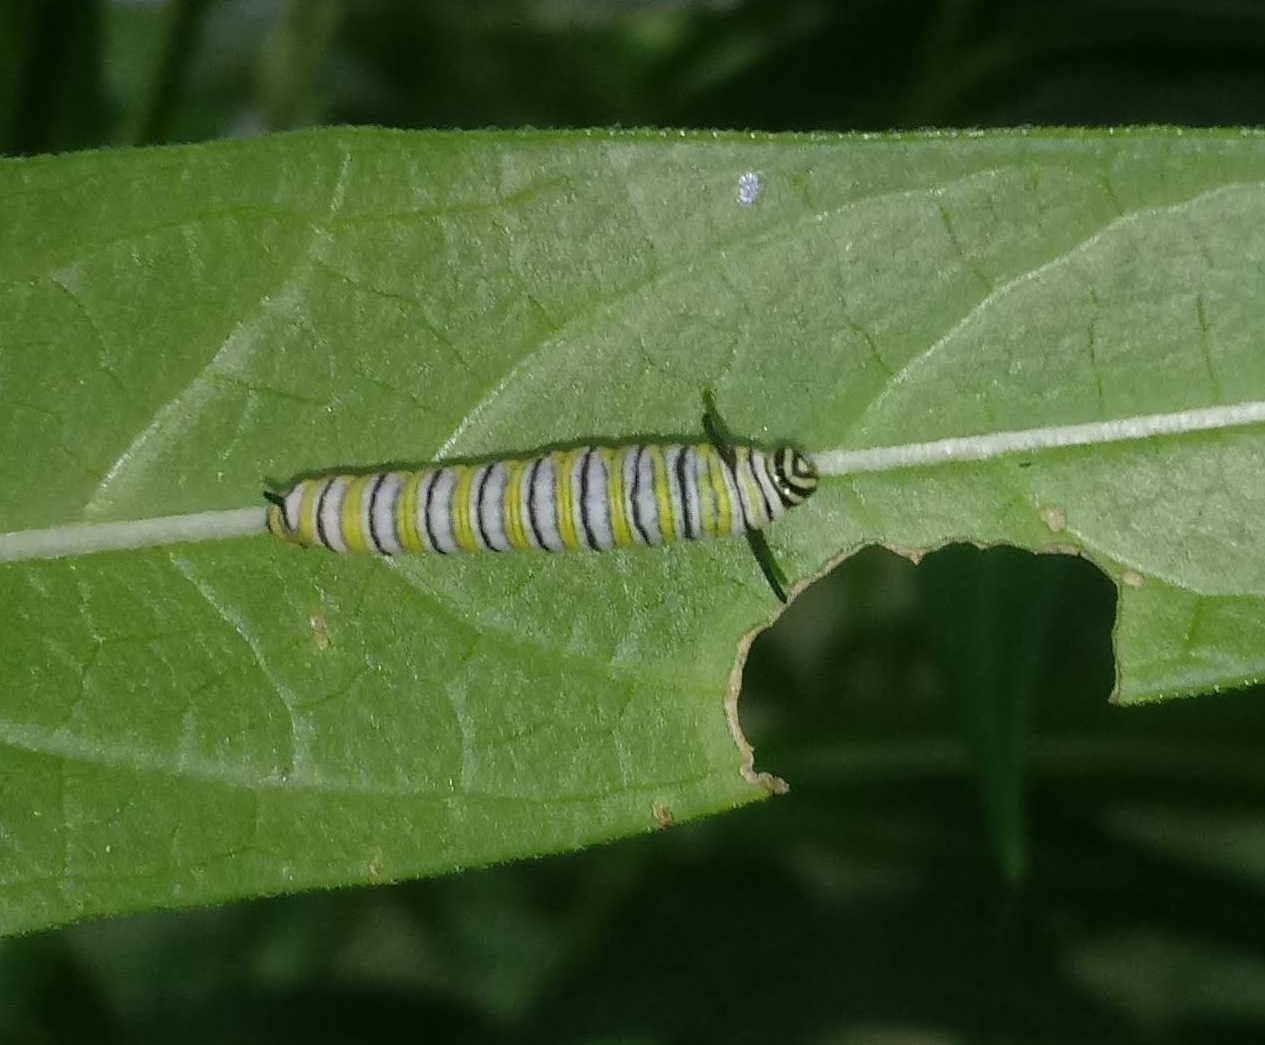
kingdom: Animalia
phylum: Arthropoda
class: Insecta
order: Lepidoptera
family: Nymphalidae
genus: Danaus
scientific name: Danaus plexippus
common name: Monarch
